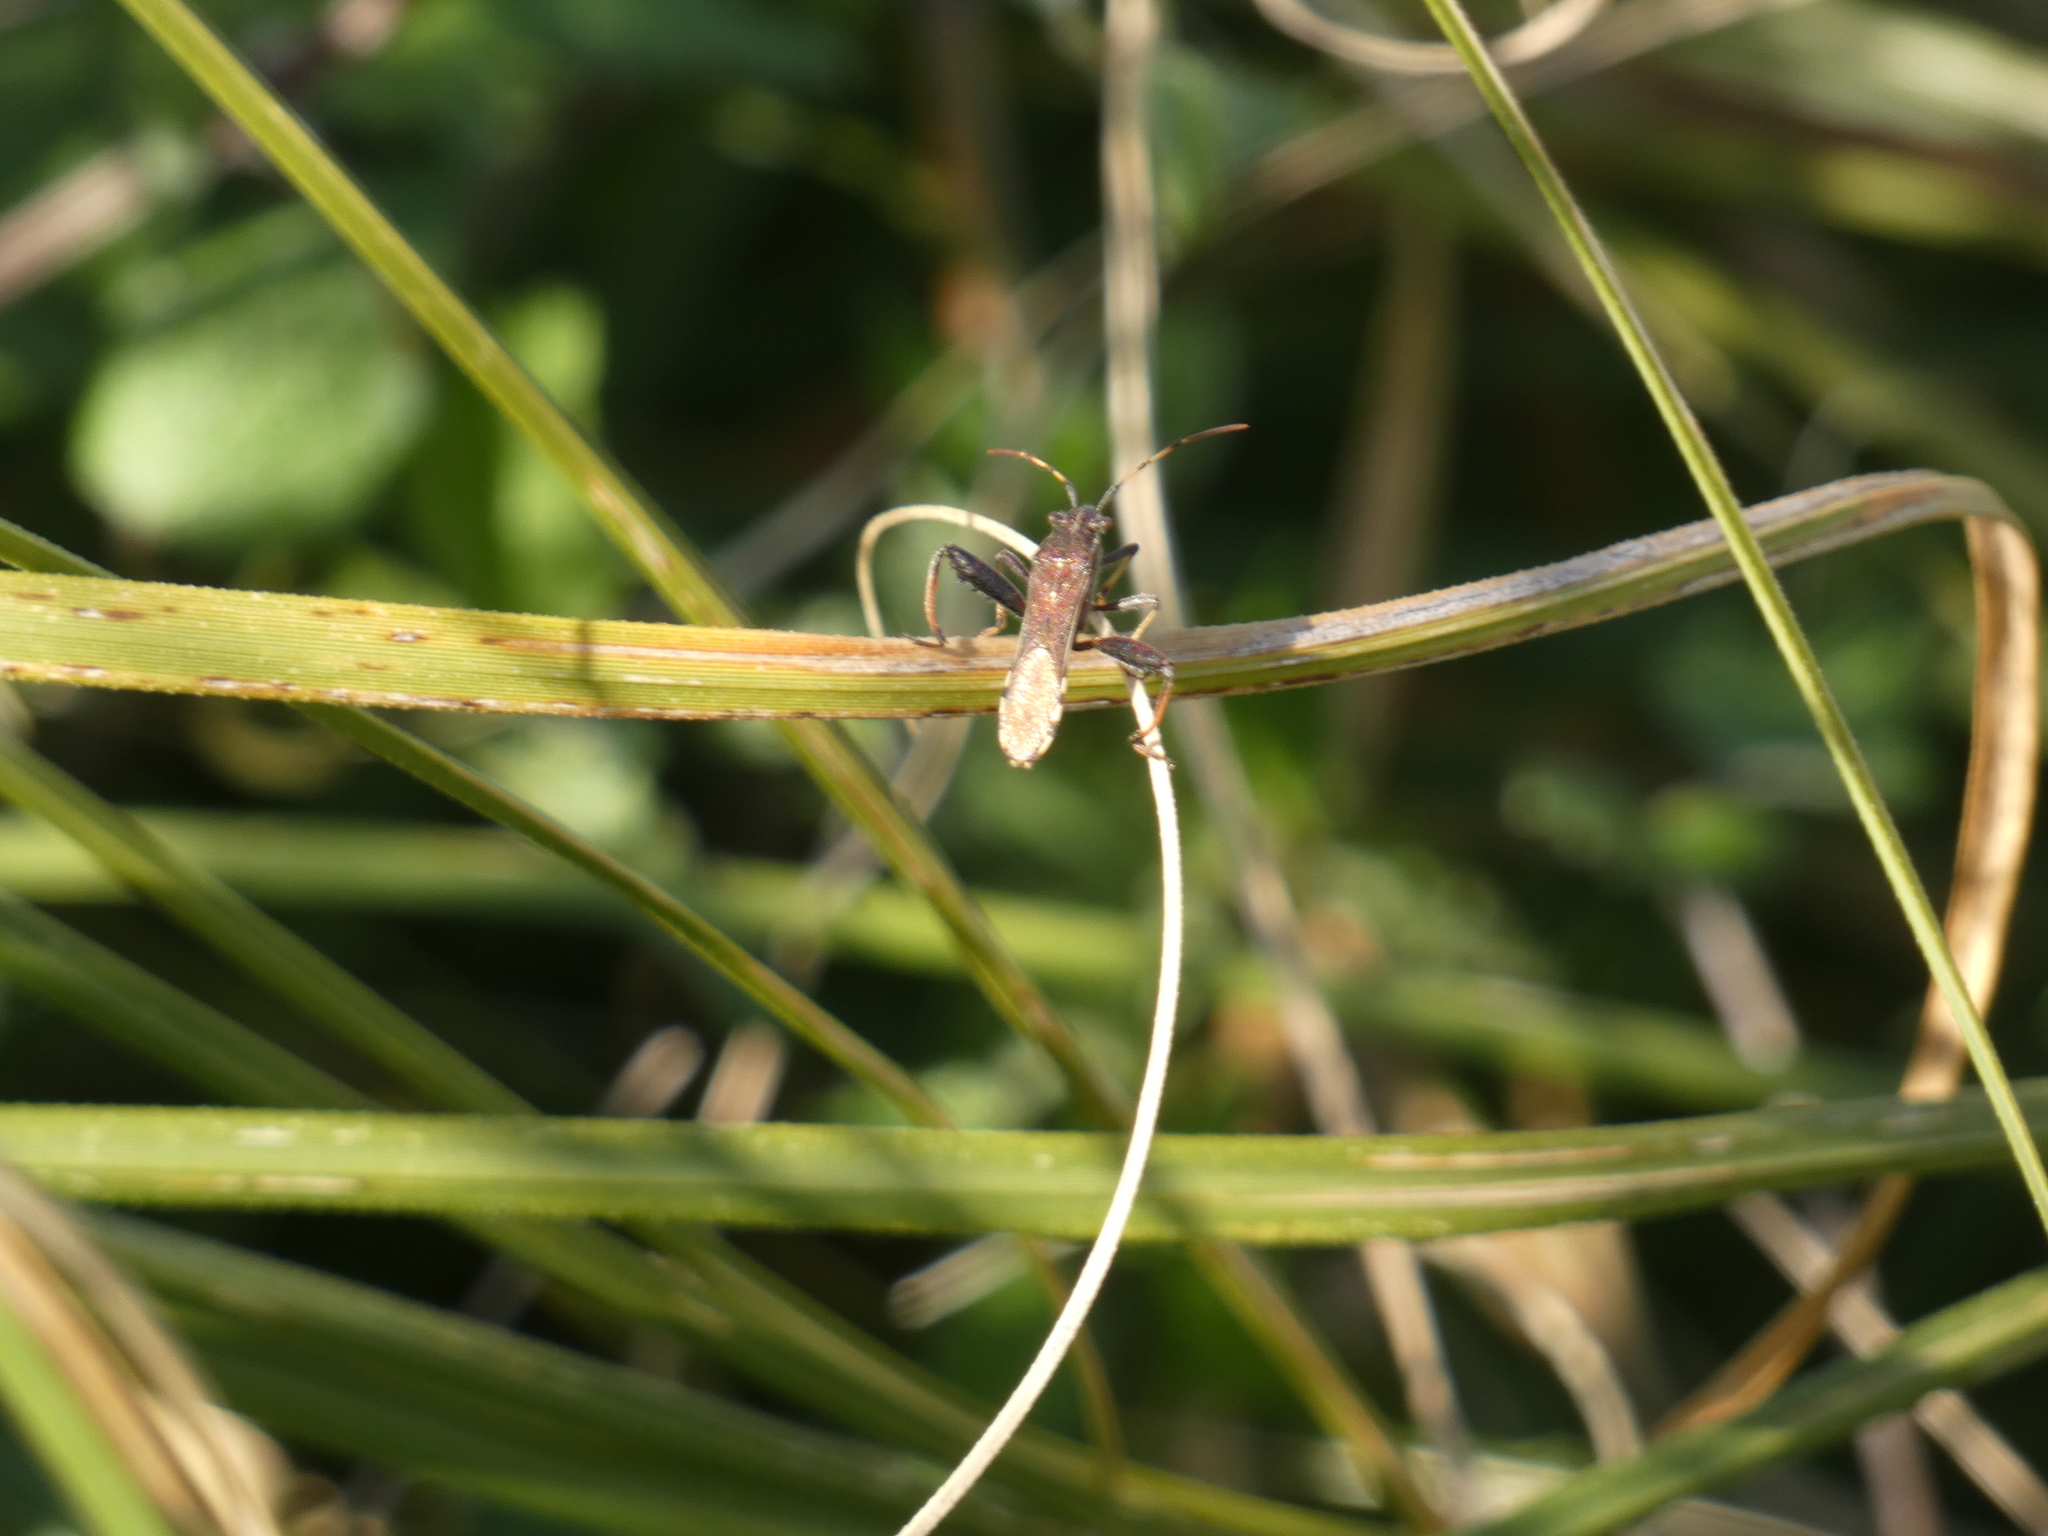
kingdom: Animalia
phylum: Arthropoda
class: Insecta
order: Hemiptera
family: Alydidae
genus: Camptopus
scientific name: Camptopus lateralis
